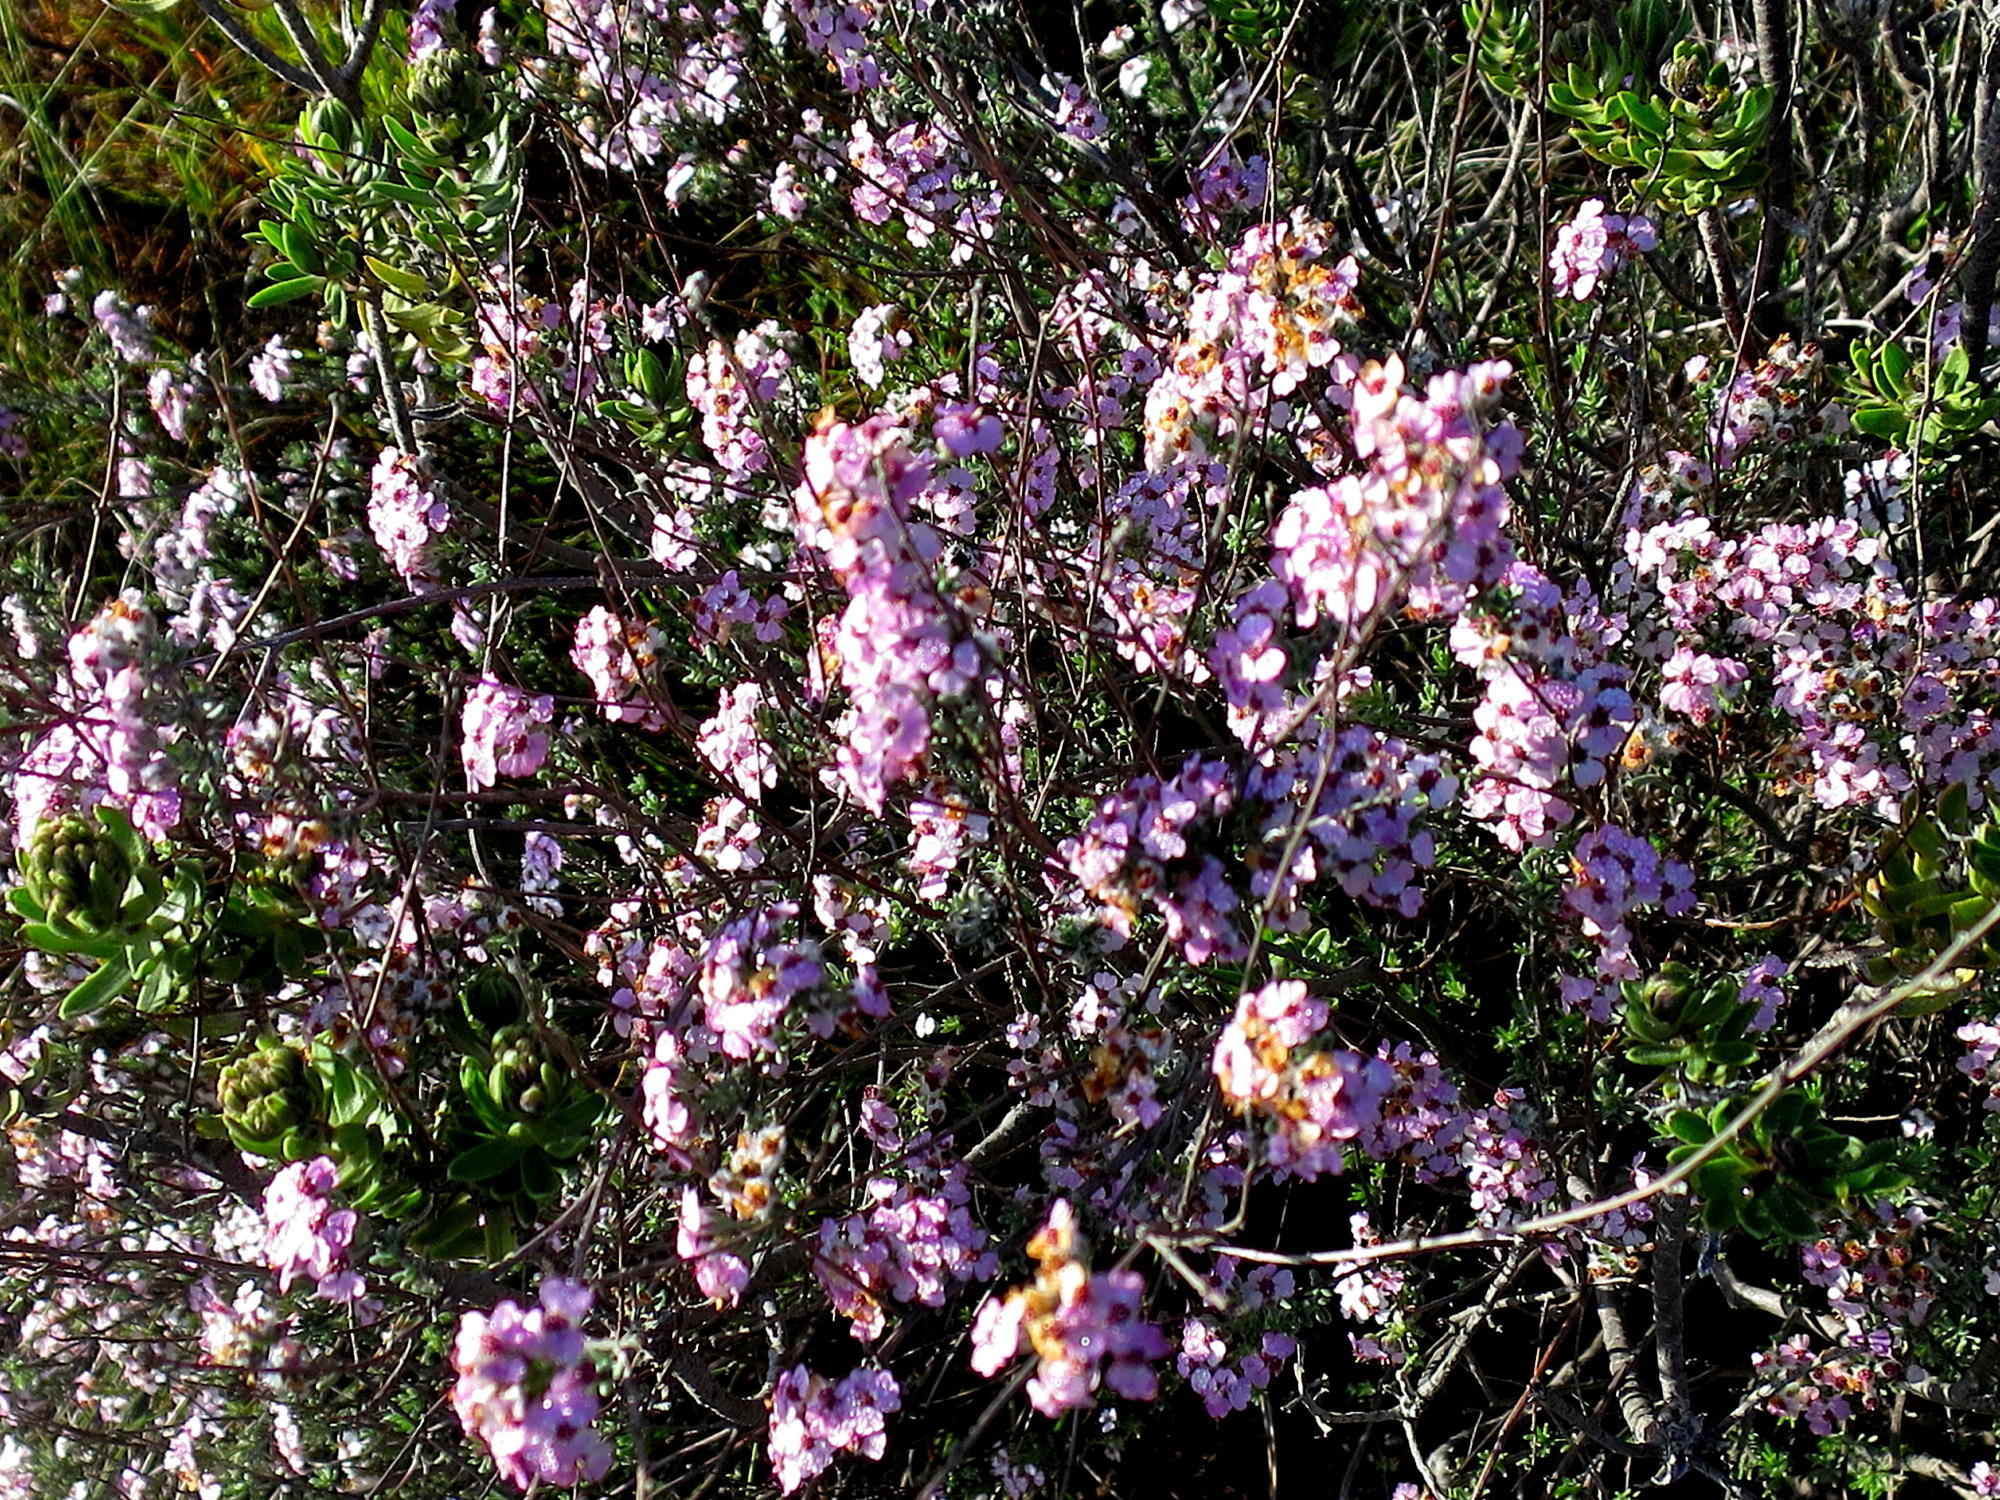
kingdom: Plantae
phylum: Tracheophyta
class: Magnoliopsida
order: Asterales
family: Asteraceae
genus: Eriocephalus
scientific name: Eriocephalus africanus
